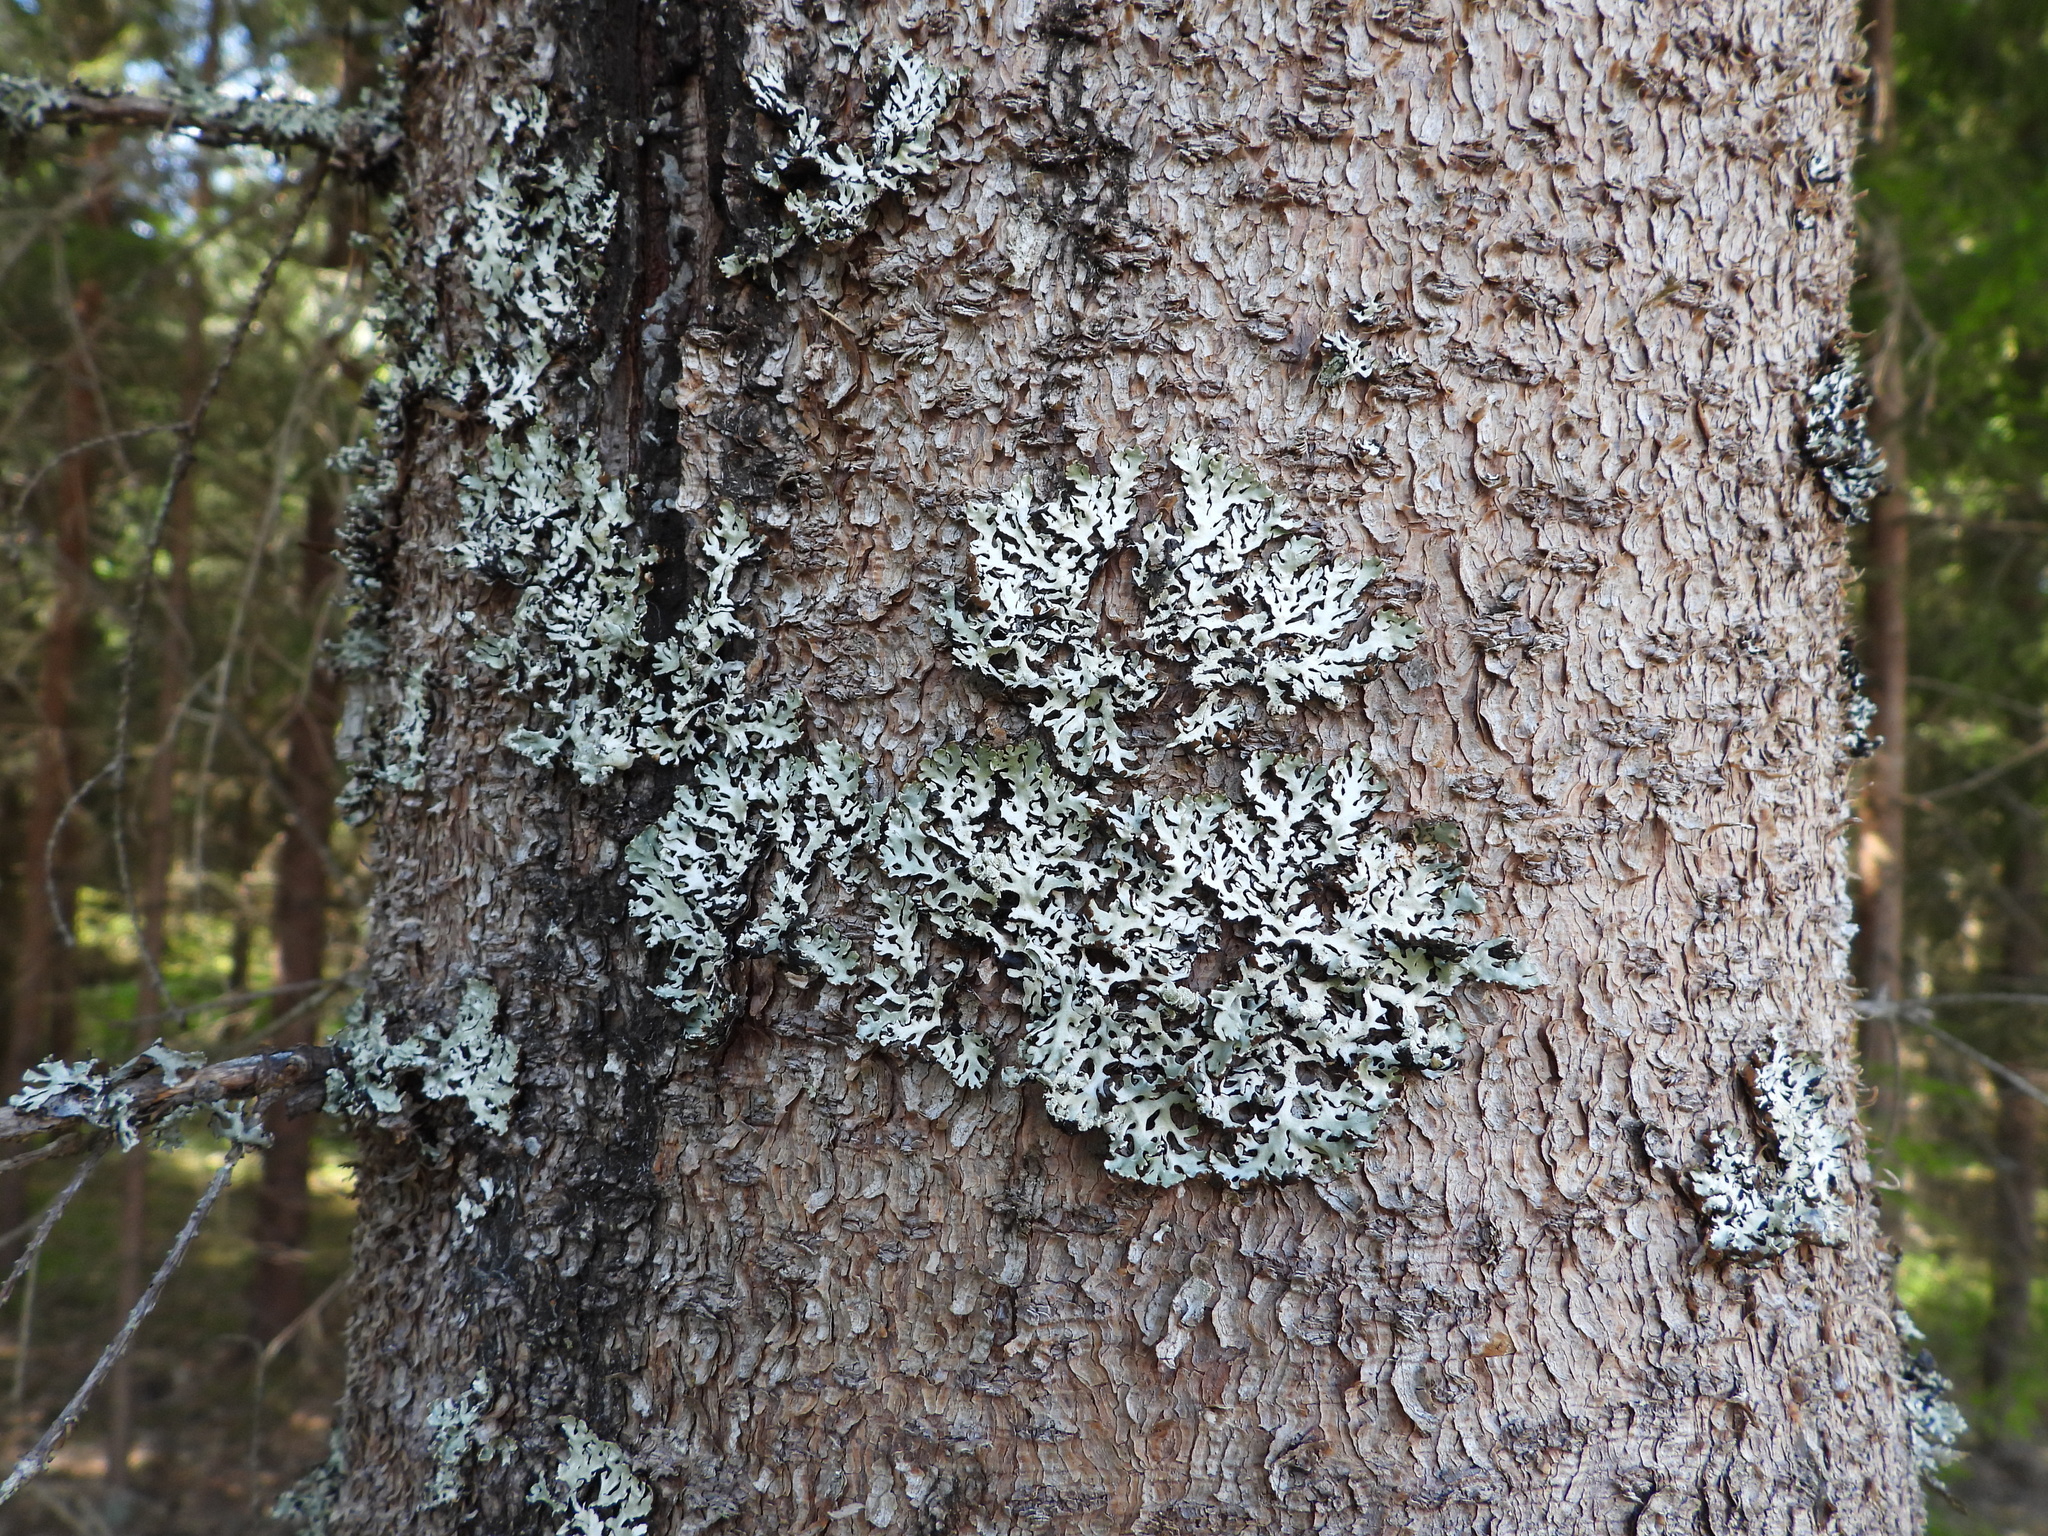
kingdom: Fungi
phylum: Ascomycota
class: Lecanoromycetes
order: Lecanorales
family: Parmeliaceae
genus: Hypogymnia
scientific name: Hypogymnia physodes
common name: Dark crottle
